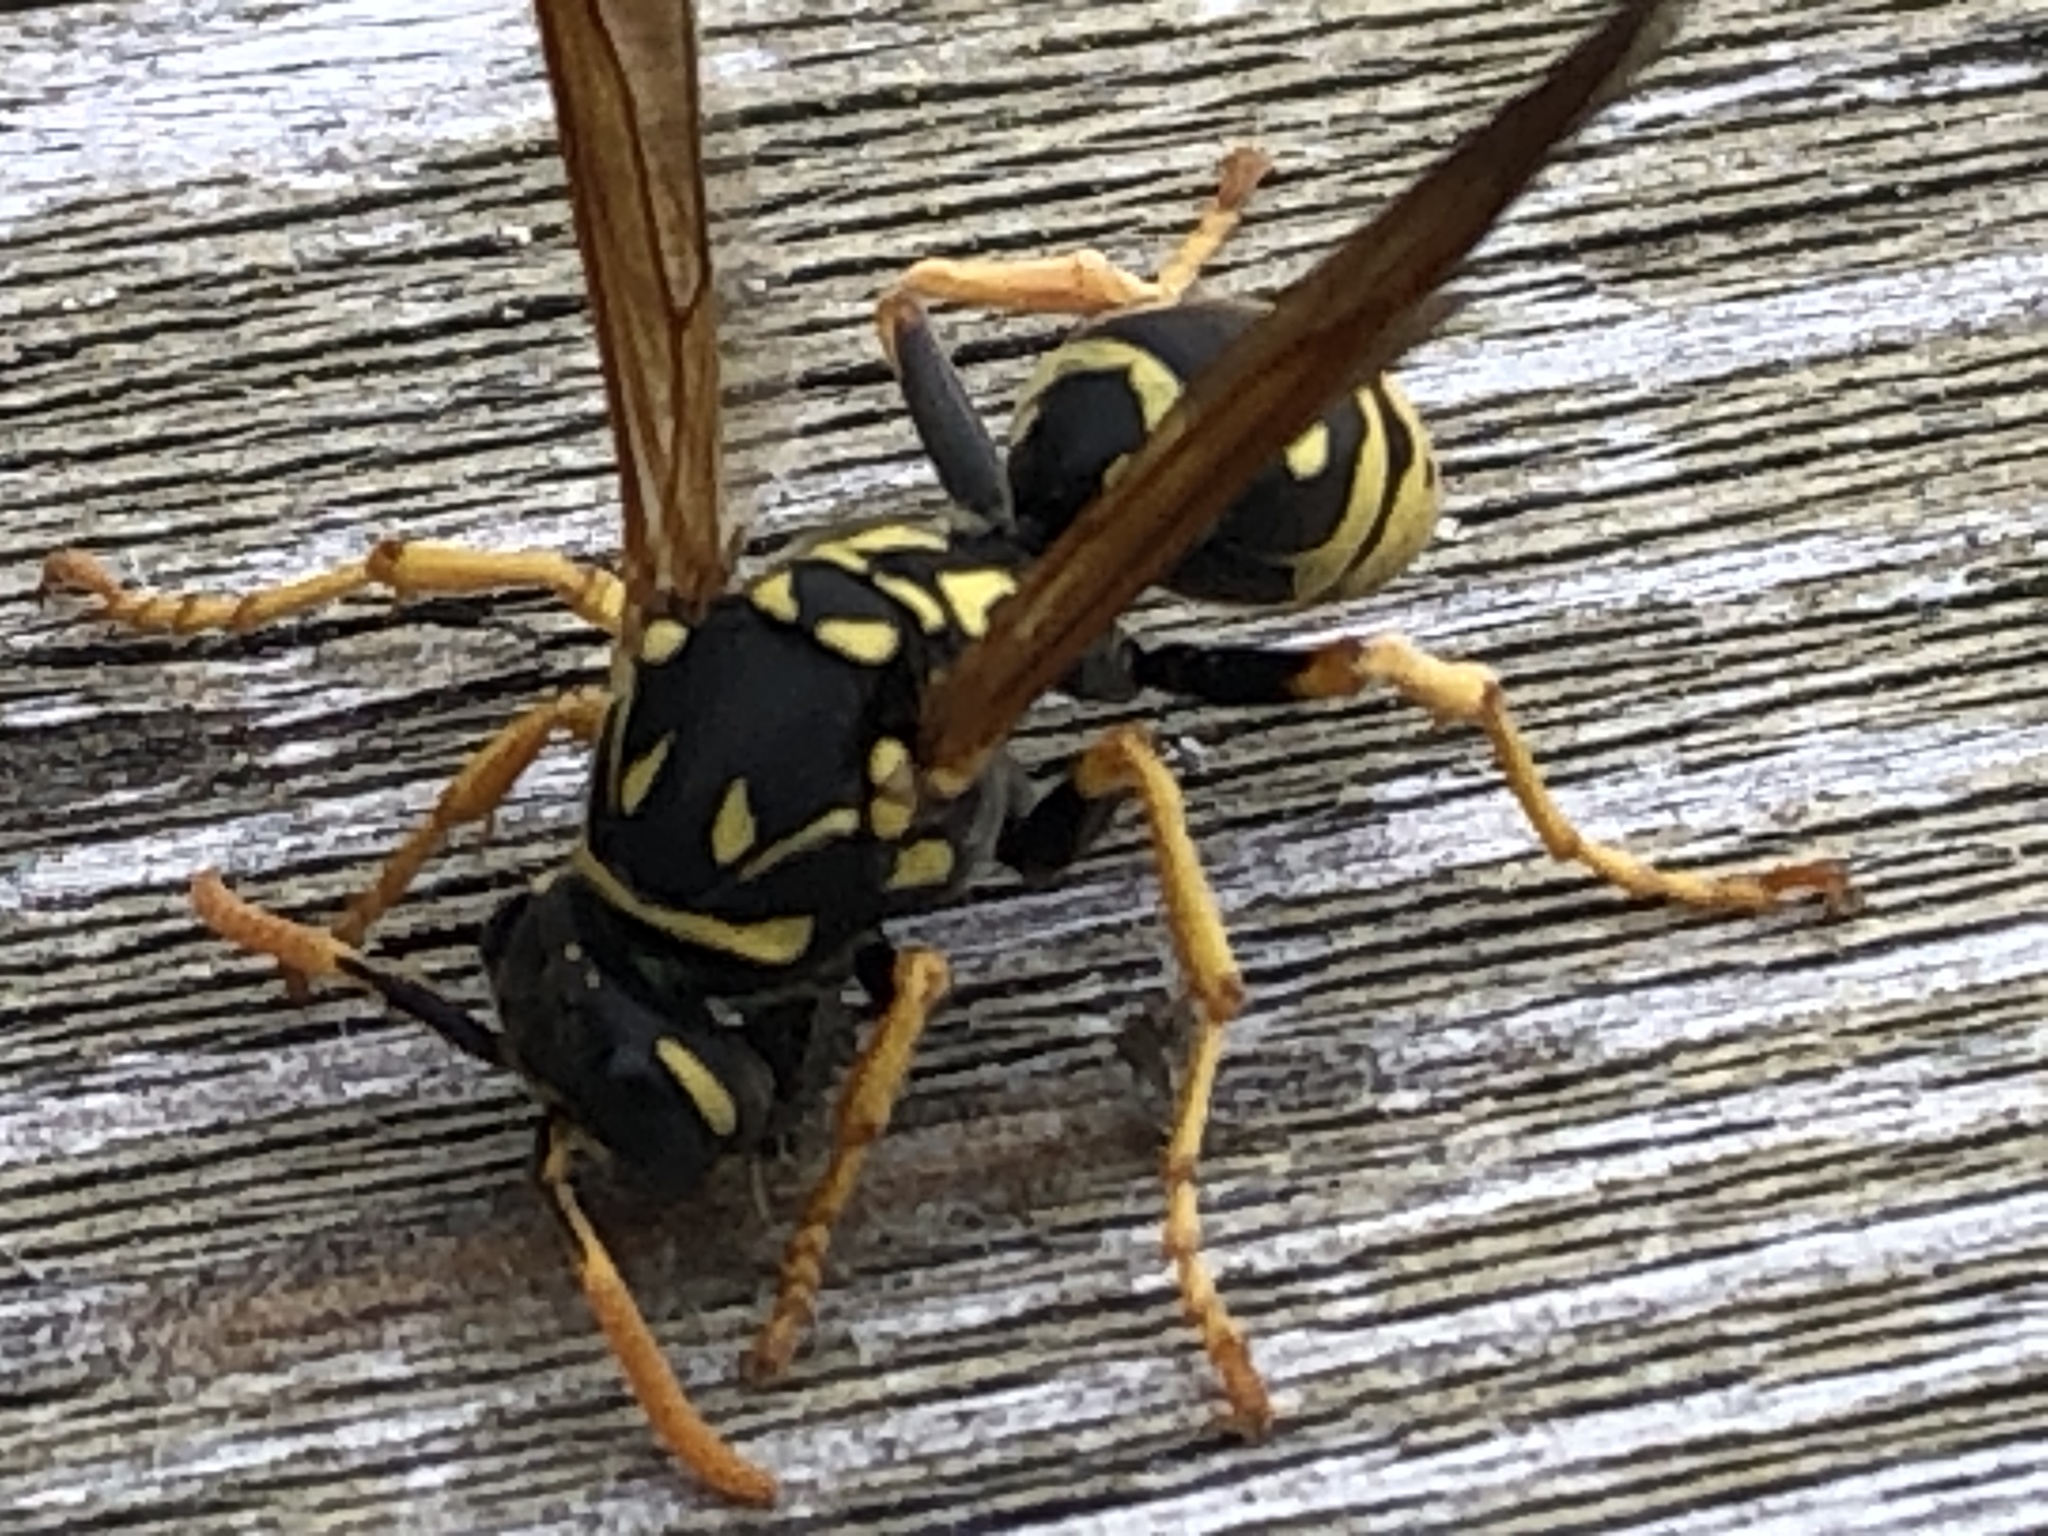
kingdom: Animalia
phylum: Arthropoda
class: Insecta
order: Hymenoptera
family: Eumenidae
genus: Polistes
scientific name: Polistes dominula
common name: Paper wasp
